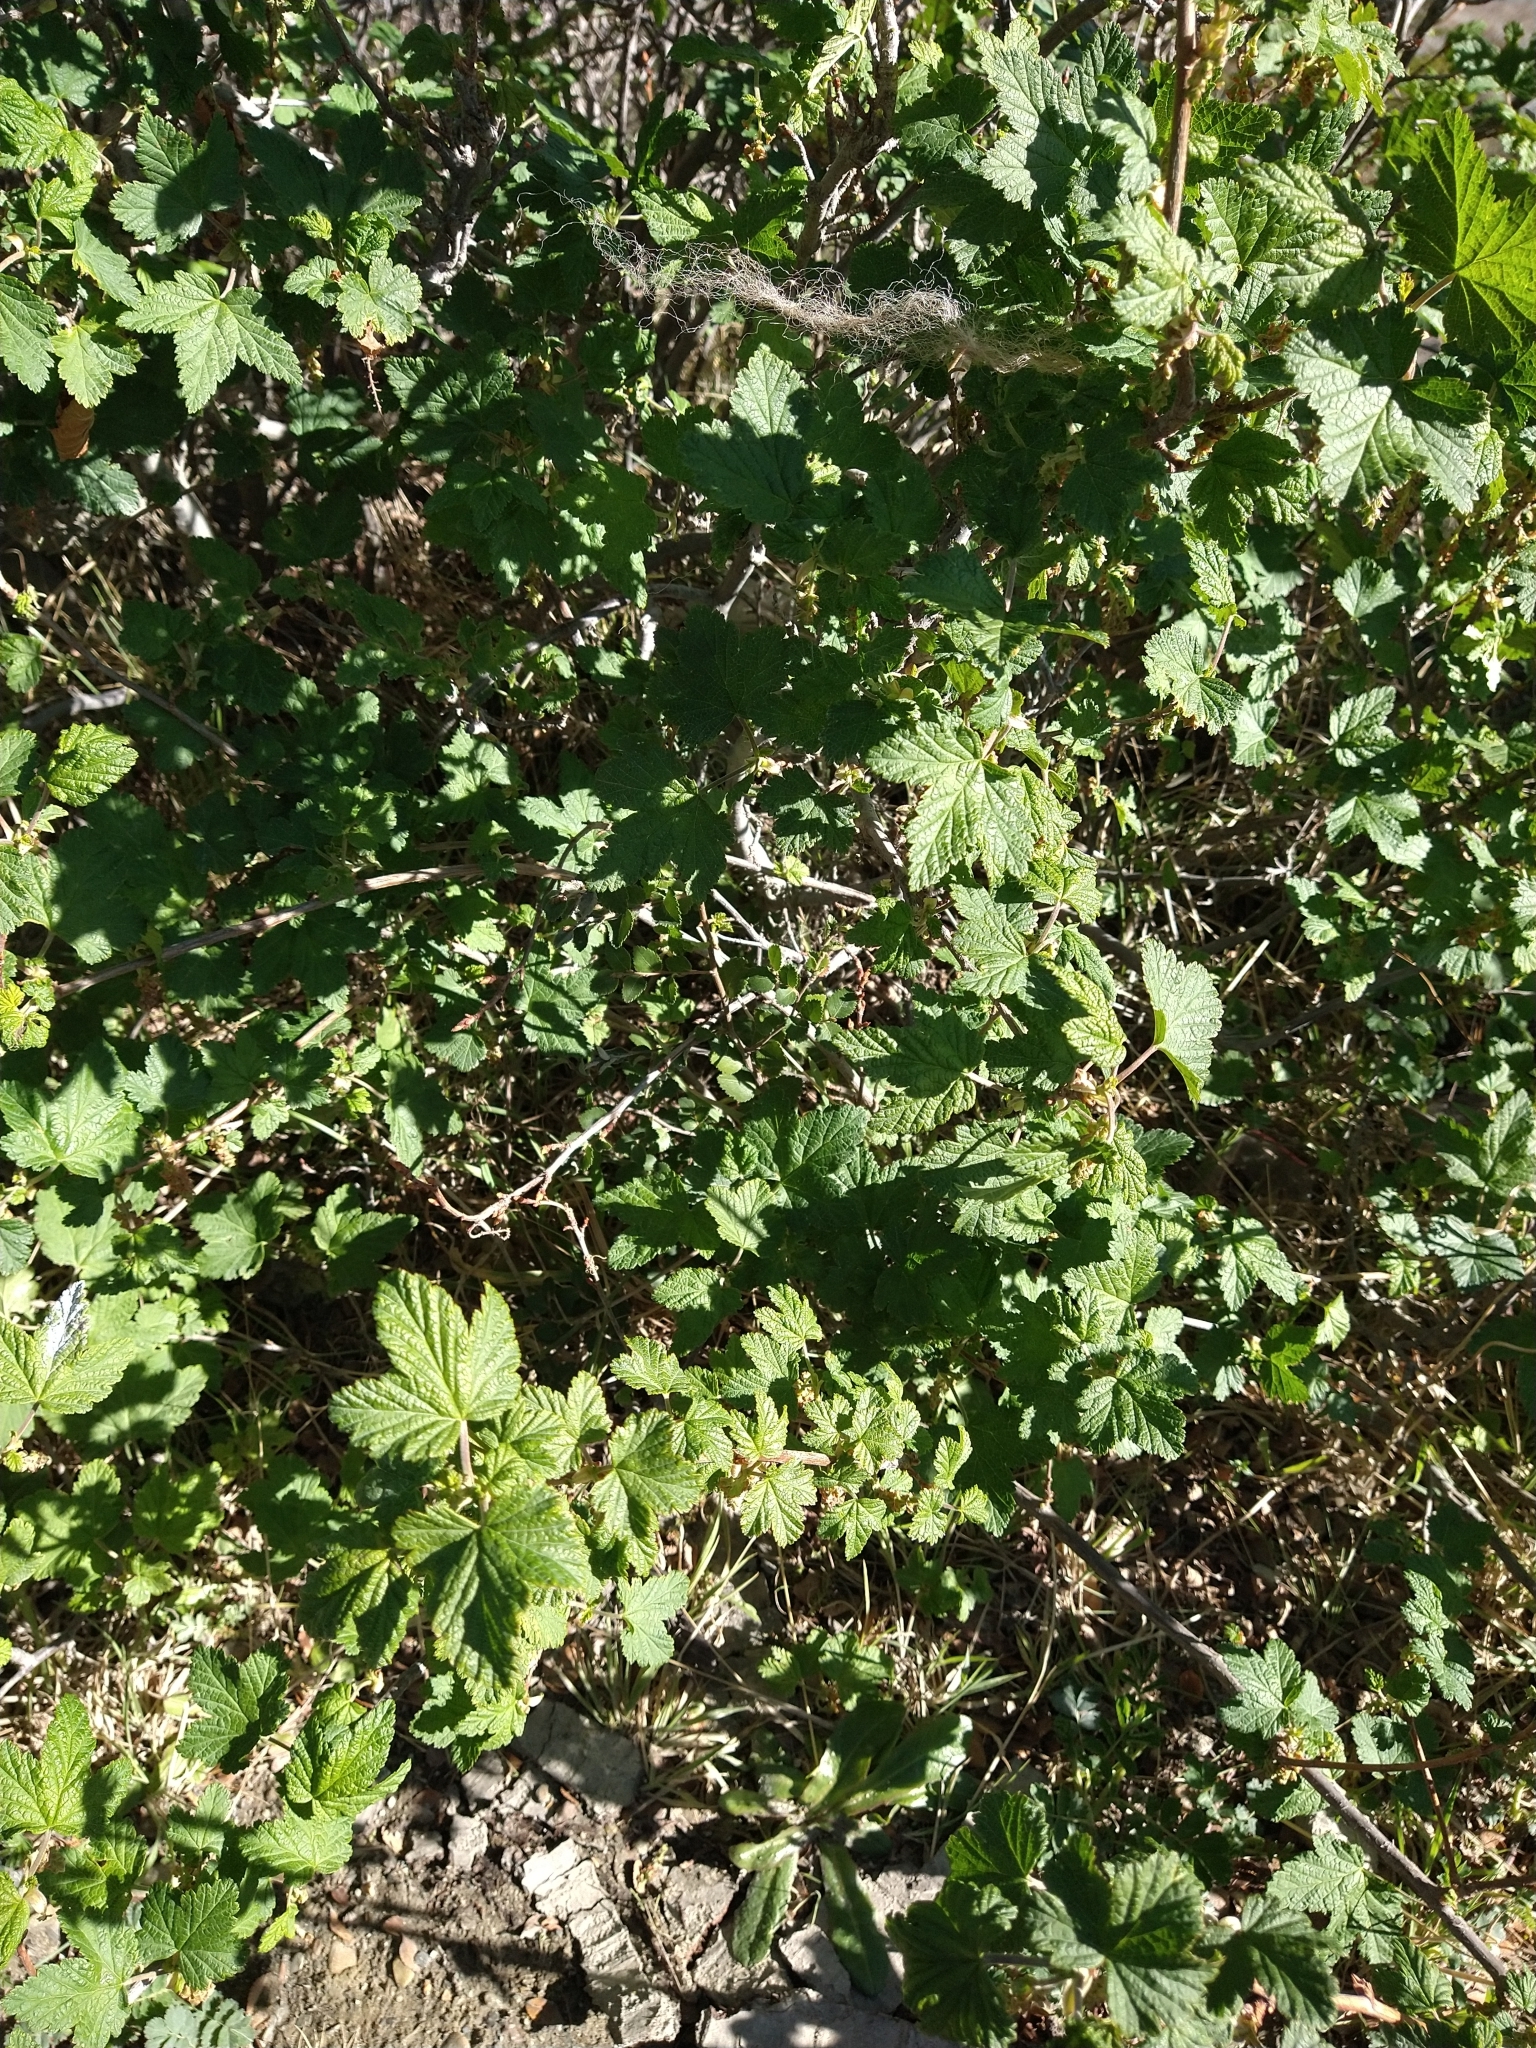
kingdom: Plantae
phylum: Tracheophyta
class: Magnoliopsida
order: Saxifragales
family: Grossulariaceae
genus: Ribes
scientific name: Ribes magellanicum
